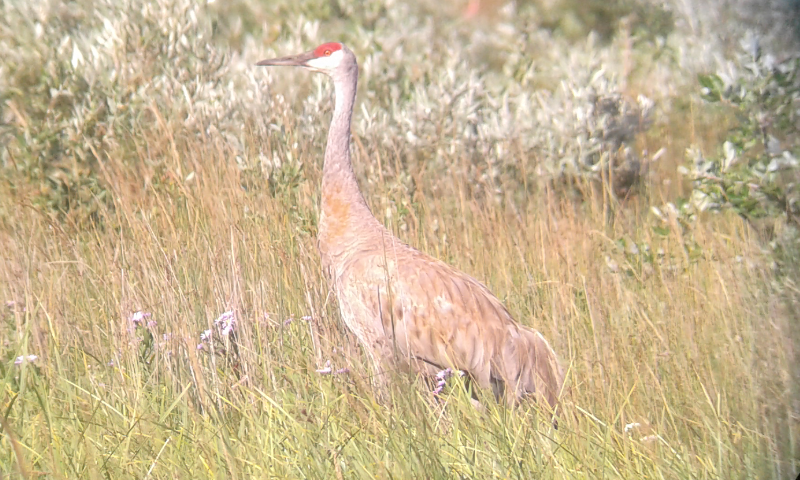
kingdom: Animalia
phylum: Chordata
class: Aves
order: Gruiformes
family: Gruidae
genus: Grus
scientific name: Grus canadensis
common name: Sandhill crane
